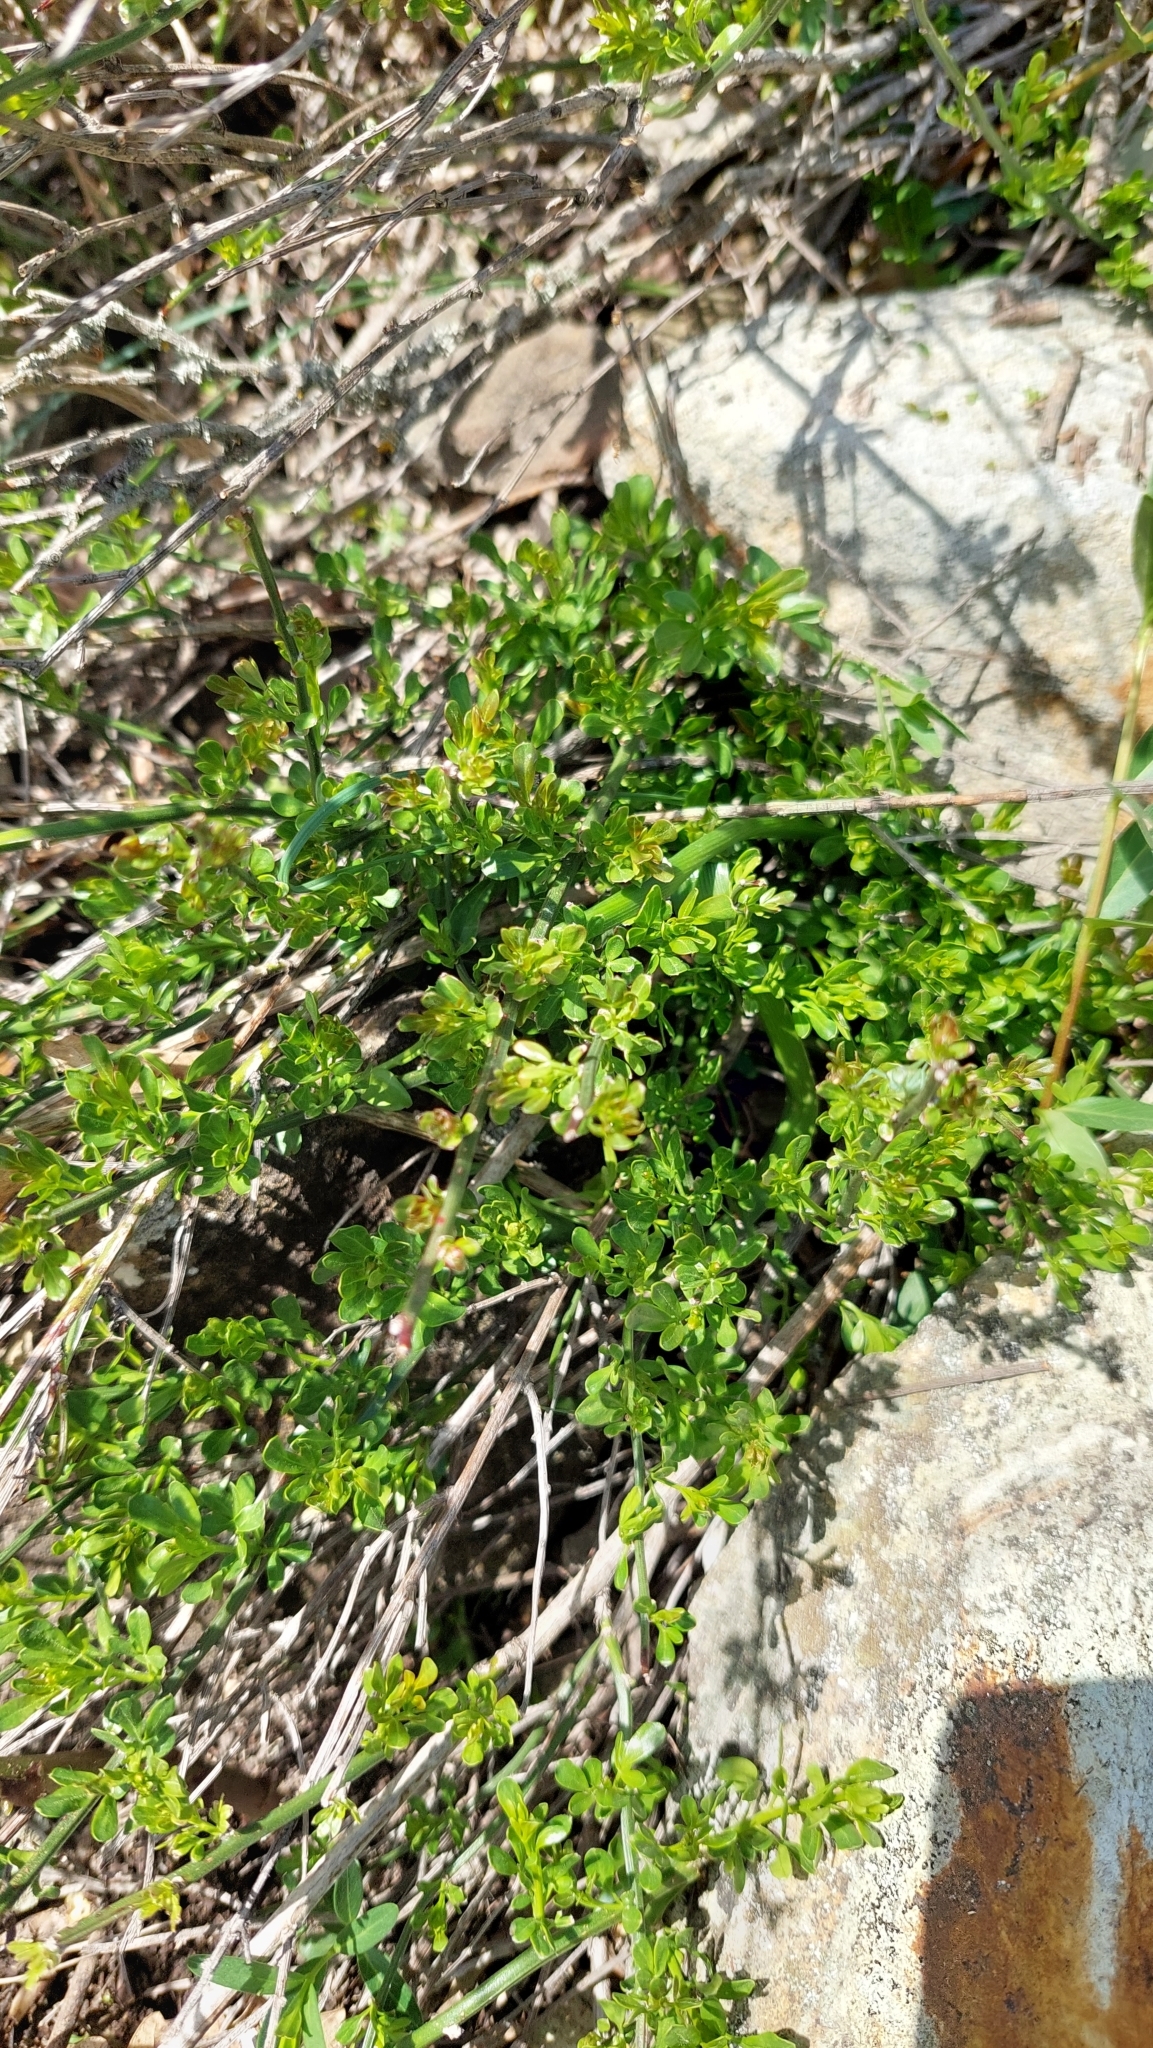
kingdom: Plantae
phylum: Tracheophyta
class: Magnoliopsida
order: Lamiales
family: Oleaceae
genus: Chrysojasminum
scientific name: Chrysojasminum fruticans
